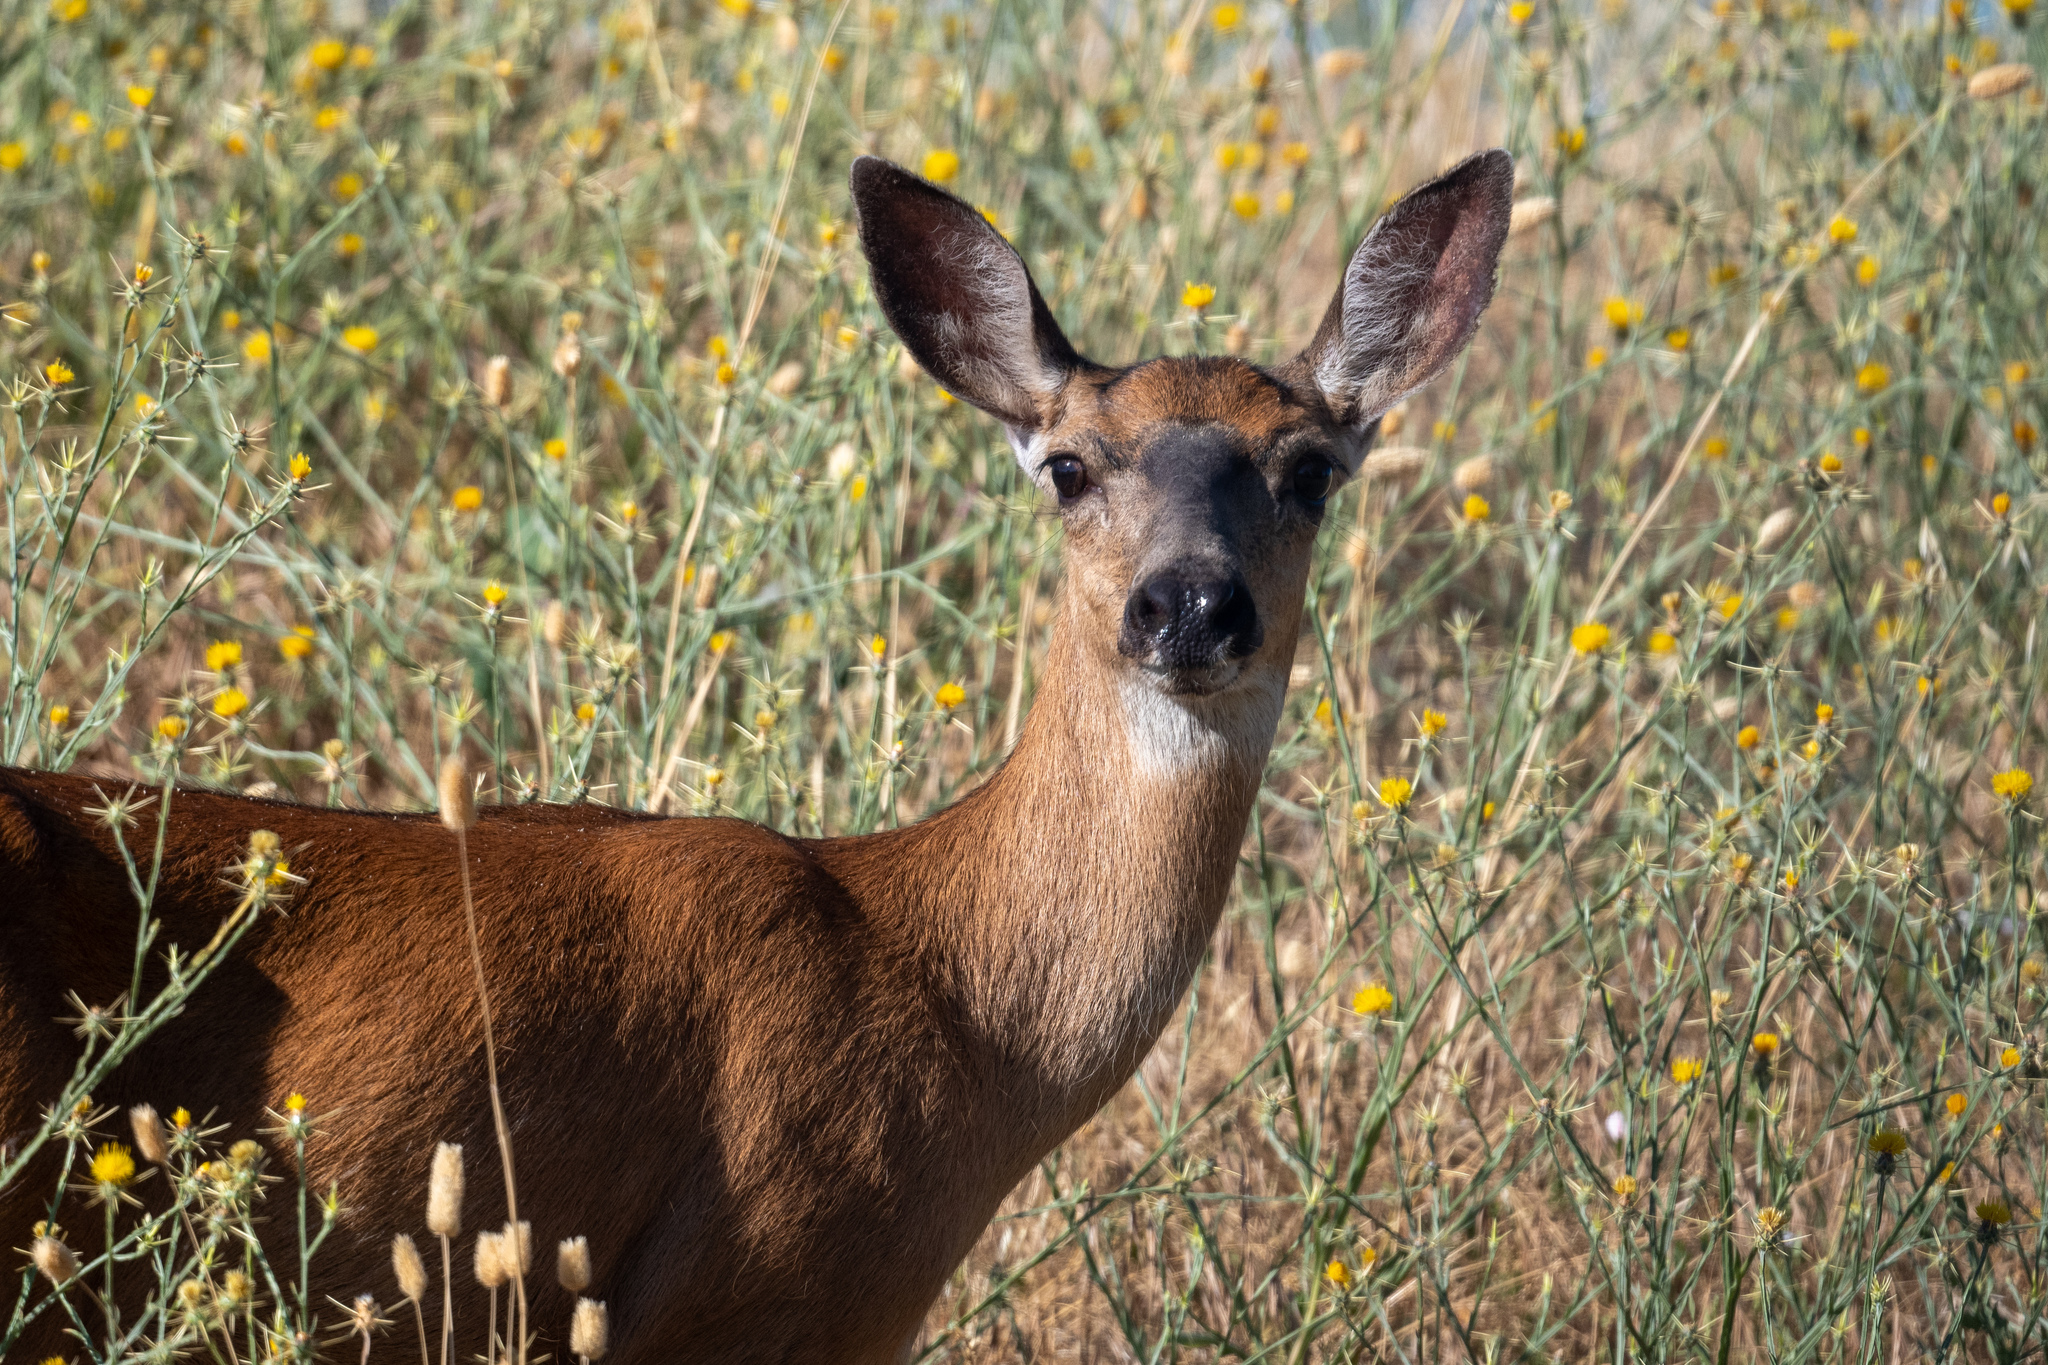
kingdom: Animalia
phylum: Chordata
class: Mammalia
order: Artiodactyla
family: Cervidae
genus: Odocoileus
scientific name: Odocoileus hemionus
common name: Mule deer
